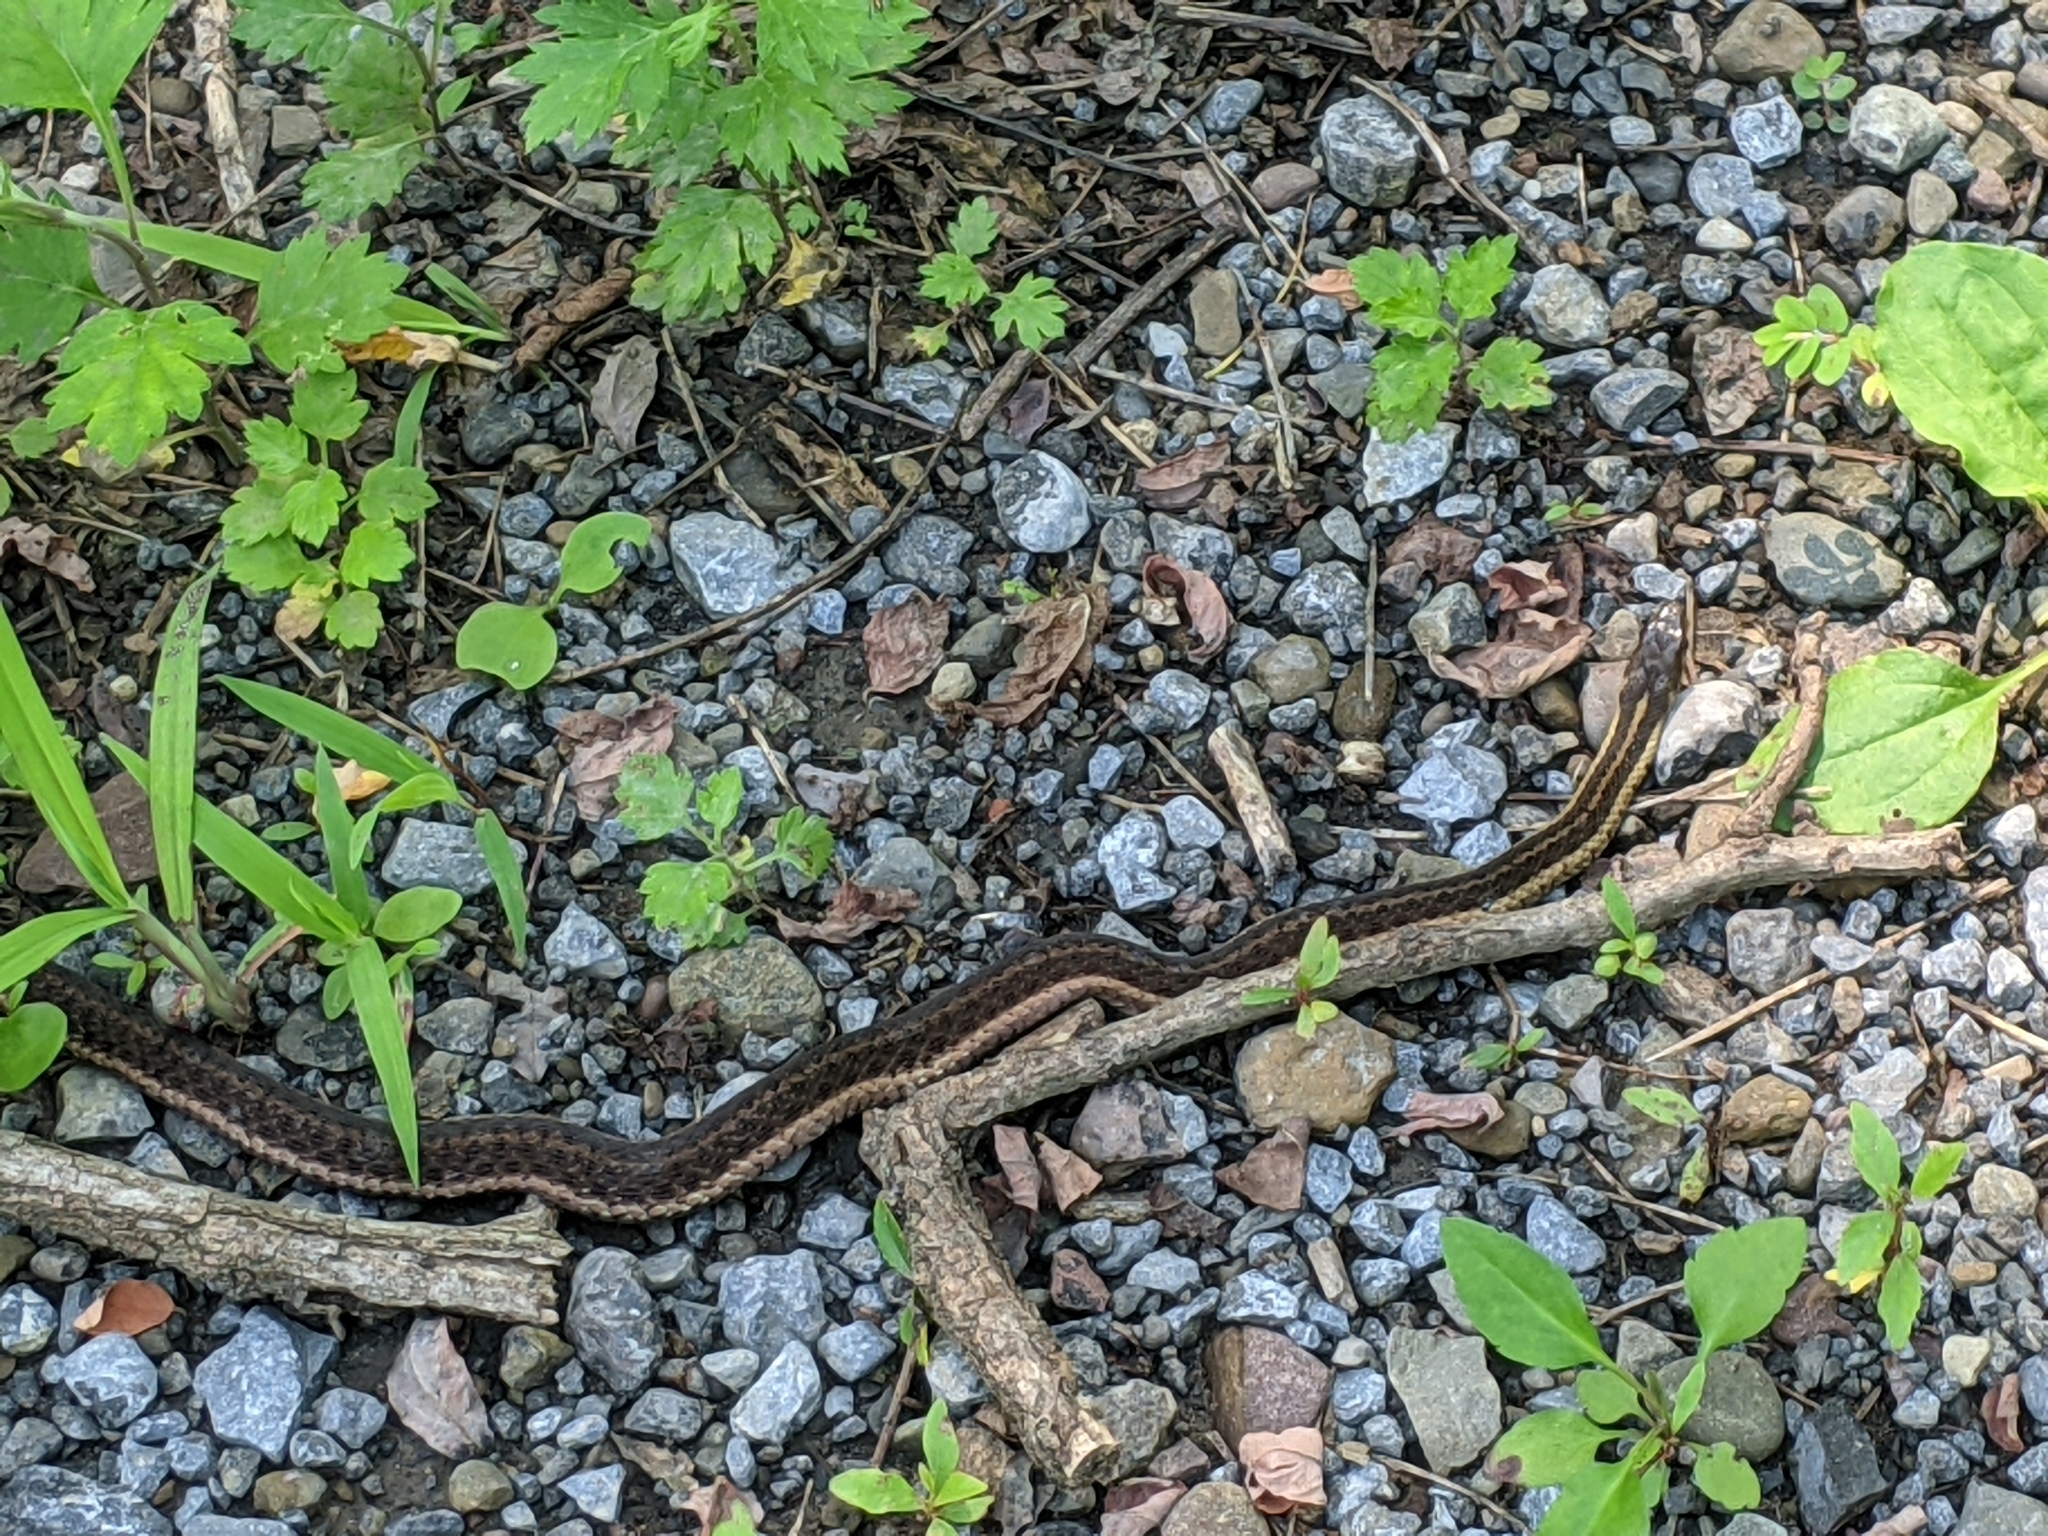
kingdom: Animalia
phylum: Chordata
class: Squamata
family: Colubridae
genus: Thamnophis
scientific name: Thamnophis sirtalis
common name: Common garter snake
